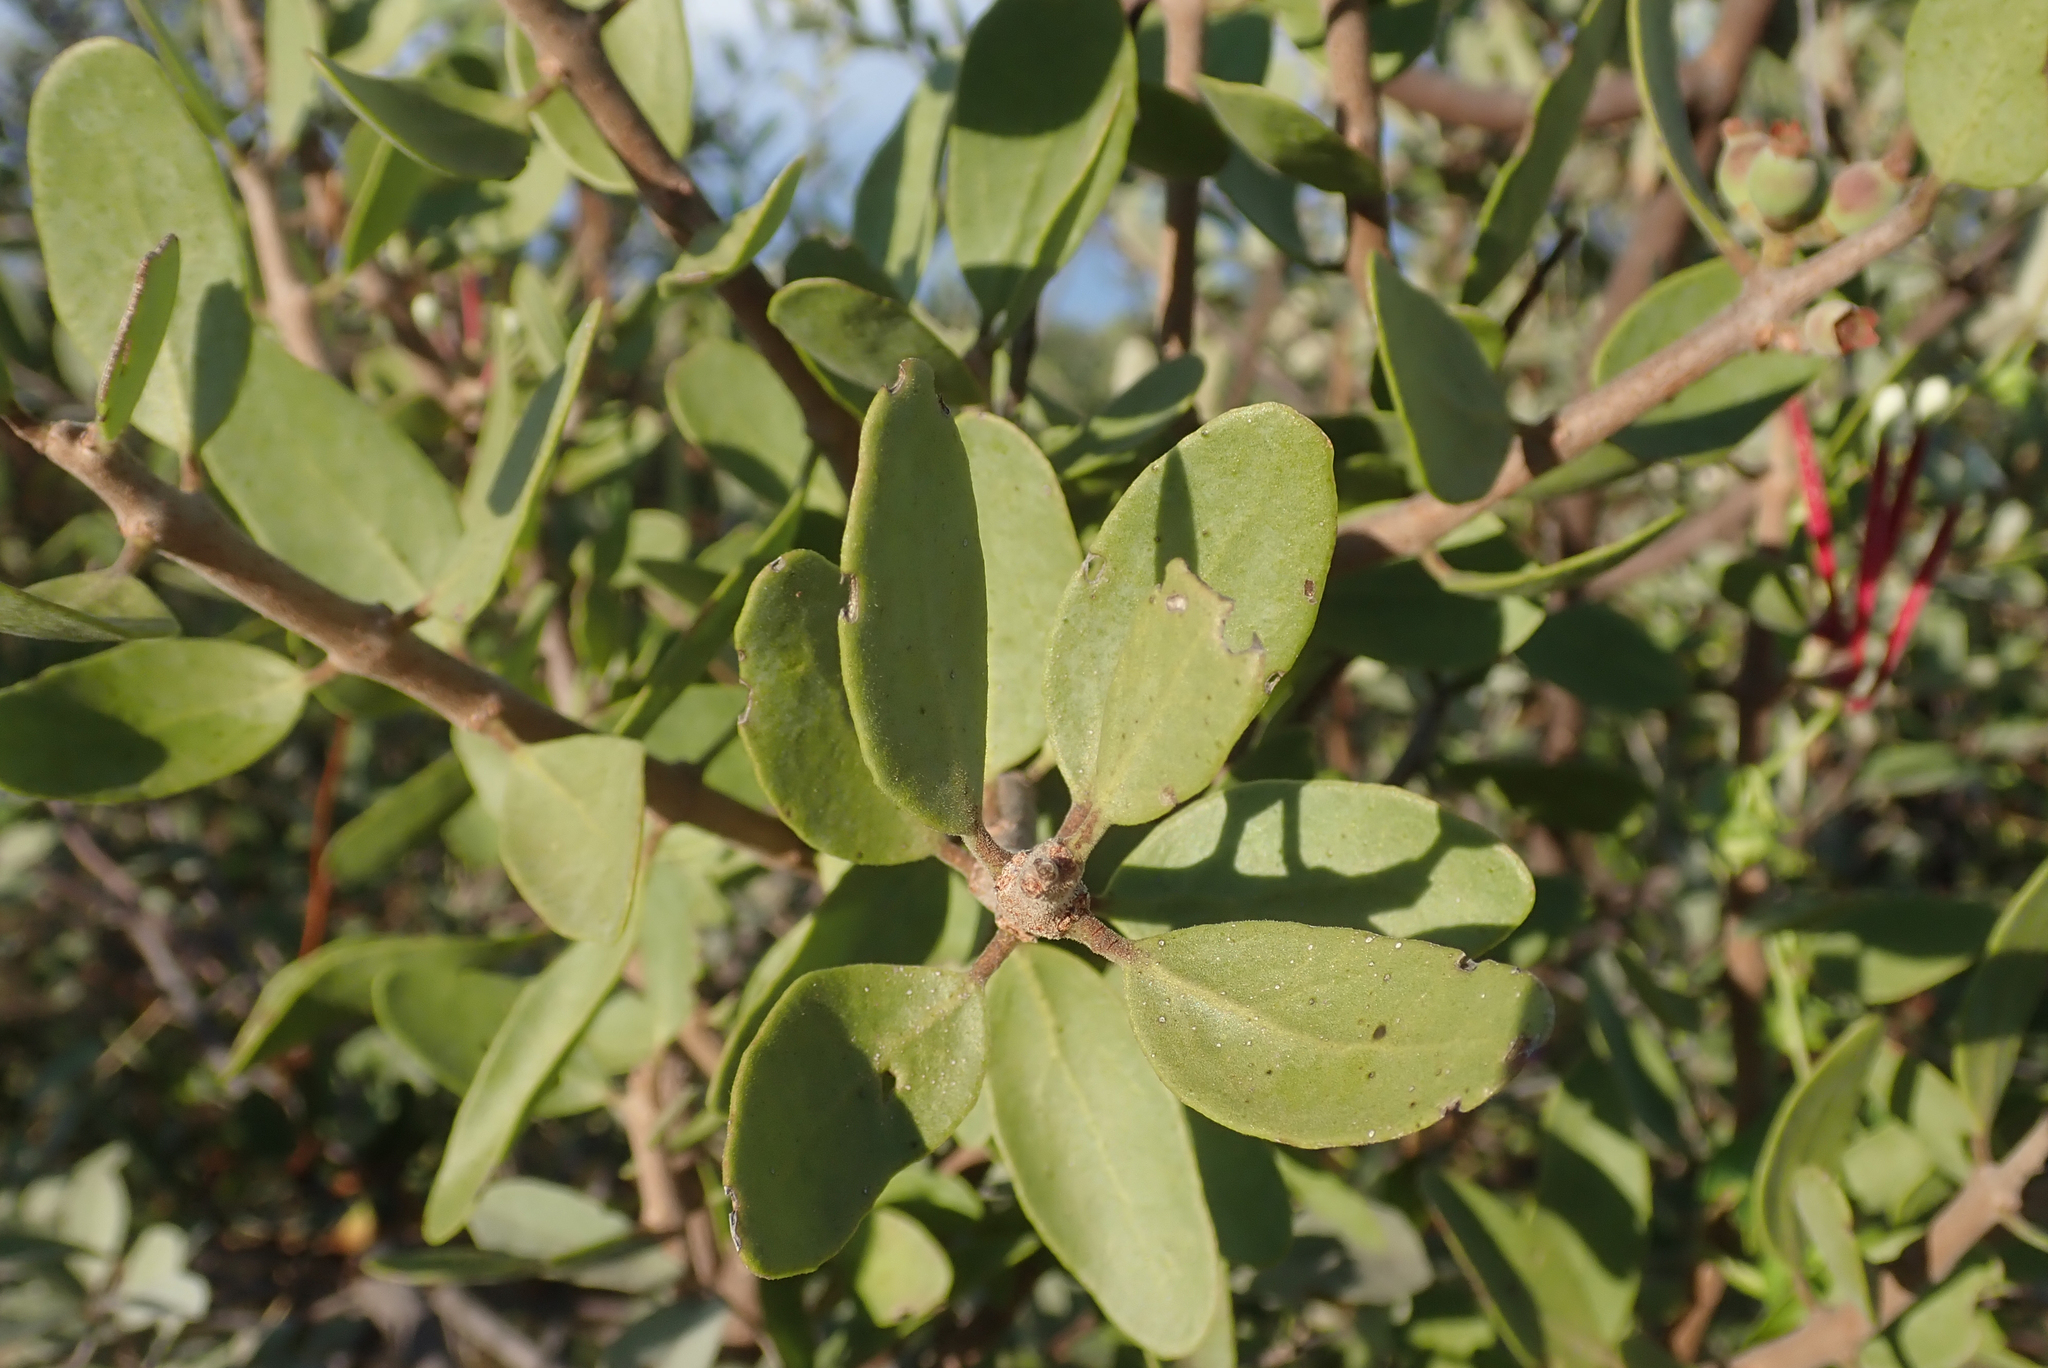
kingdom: Plantae
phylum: Tracheophyta
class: Magnoliopsida
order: Santalales
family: Loranthaceae
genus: Tapinanthus
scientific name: Tapinanthus oleifolius
